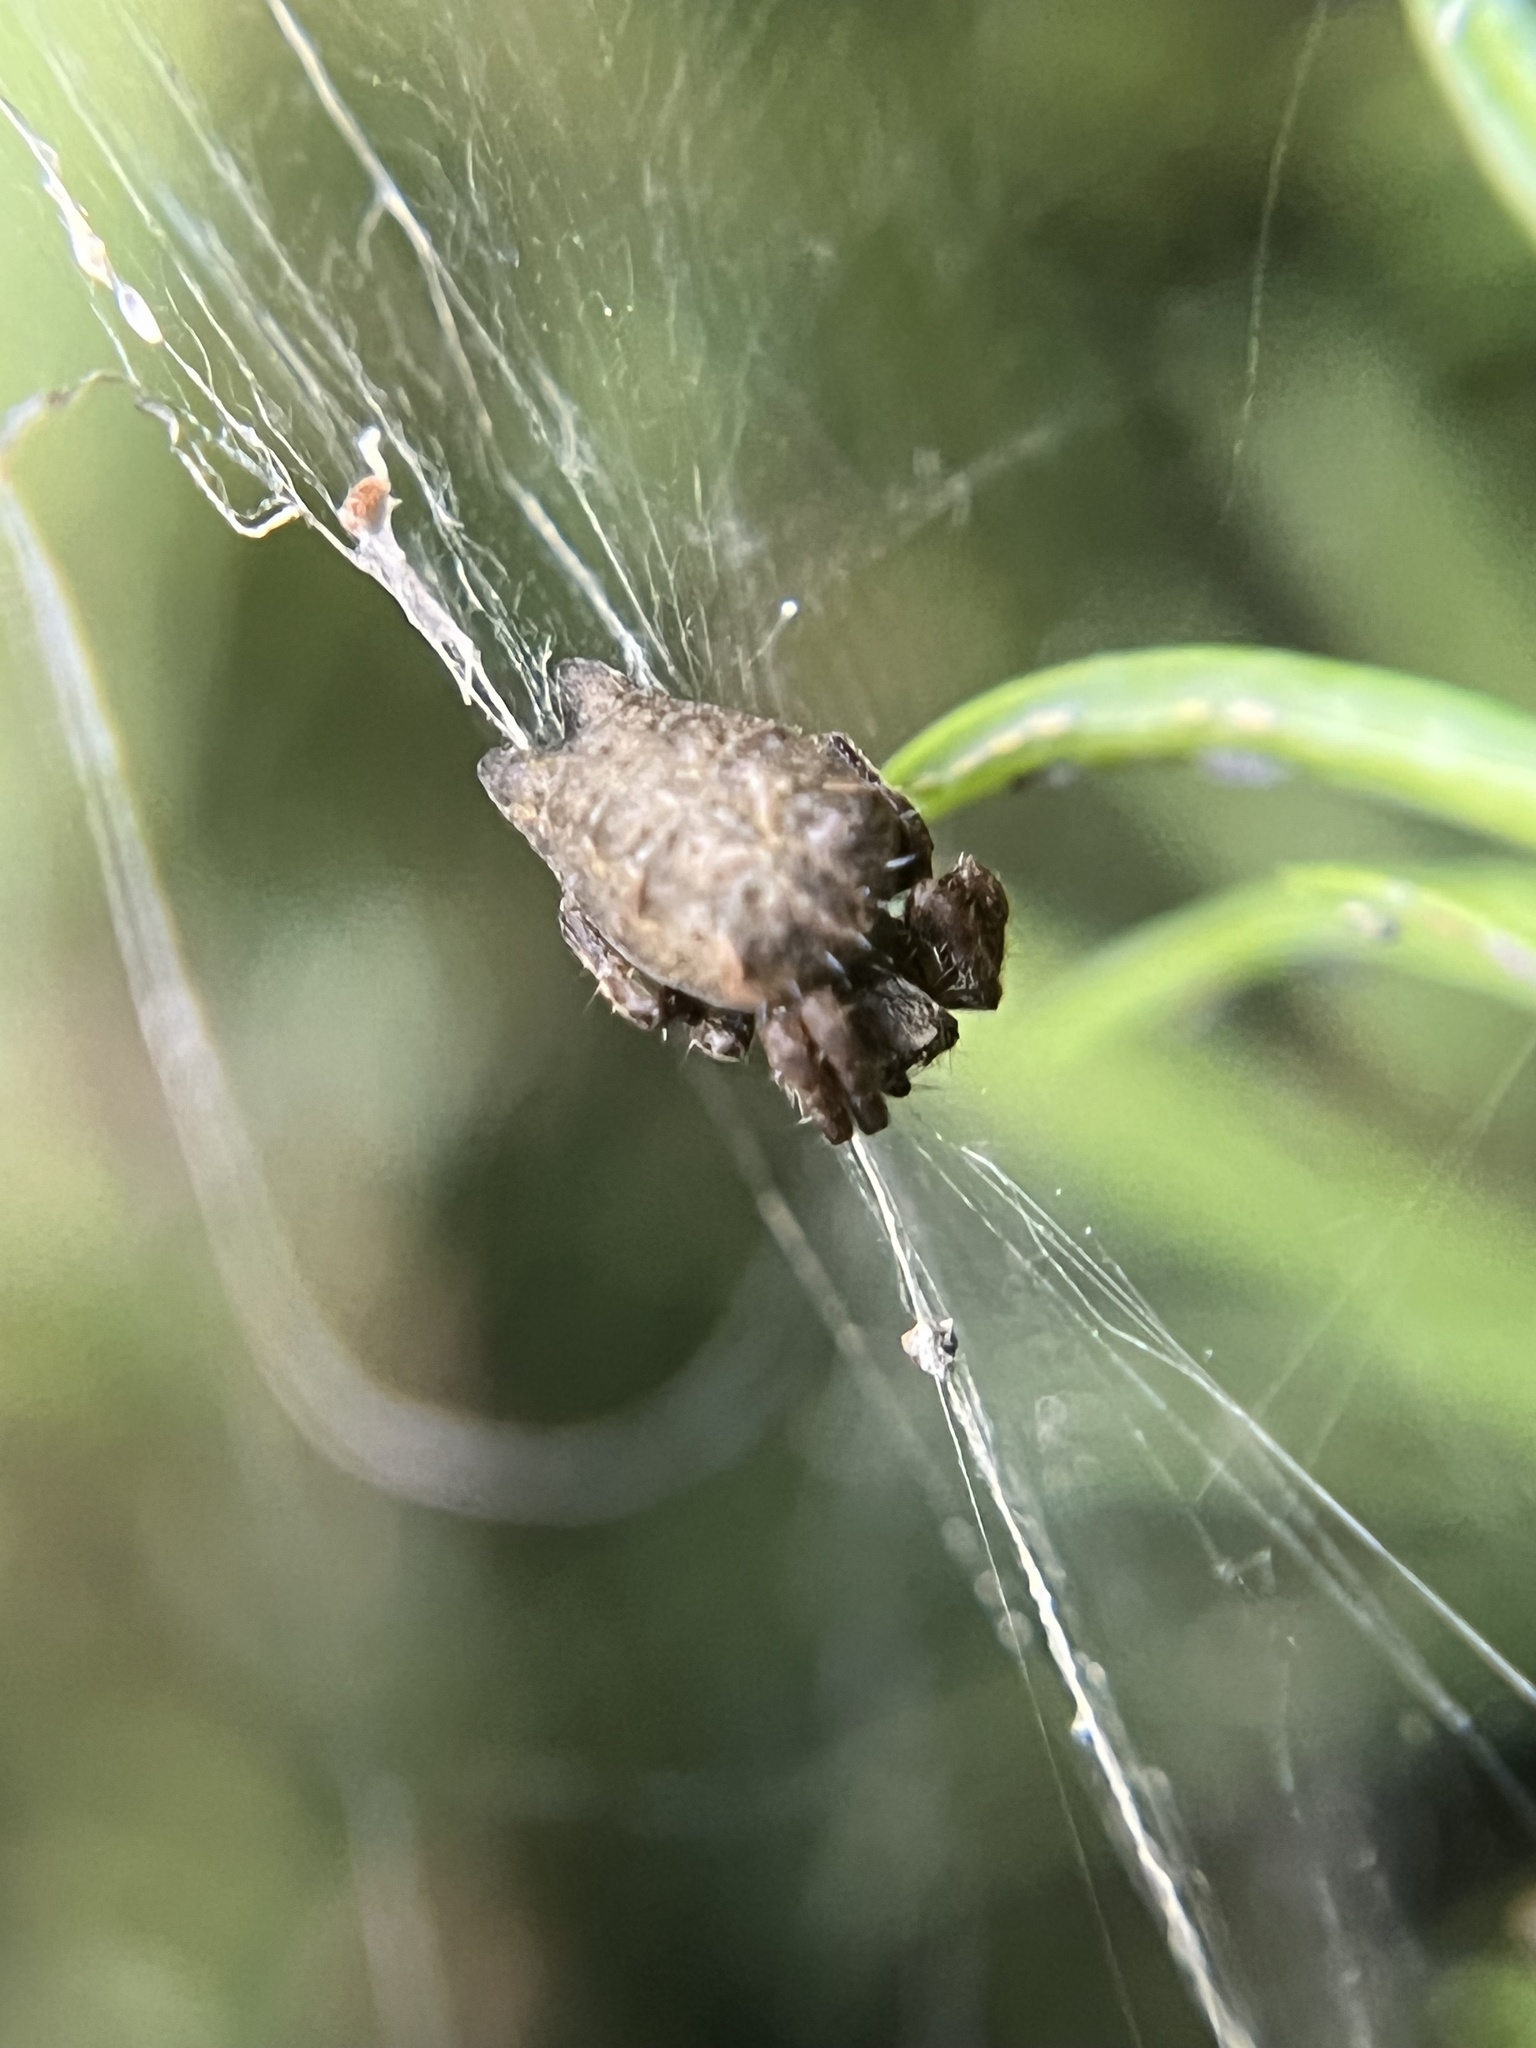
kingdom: Animalia
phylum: Arthropoda
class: Arachnida
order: Araneae
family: Araneidae
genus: Cyrtophora
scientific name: Cyrtophora citricola
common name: Orb weavers
